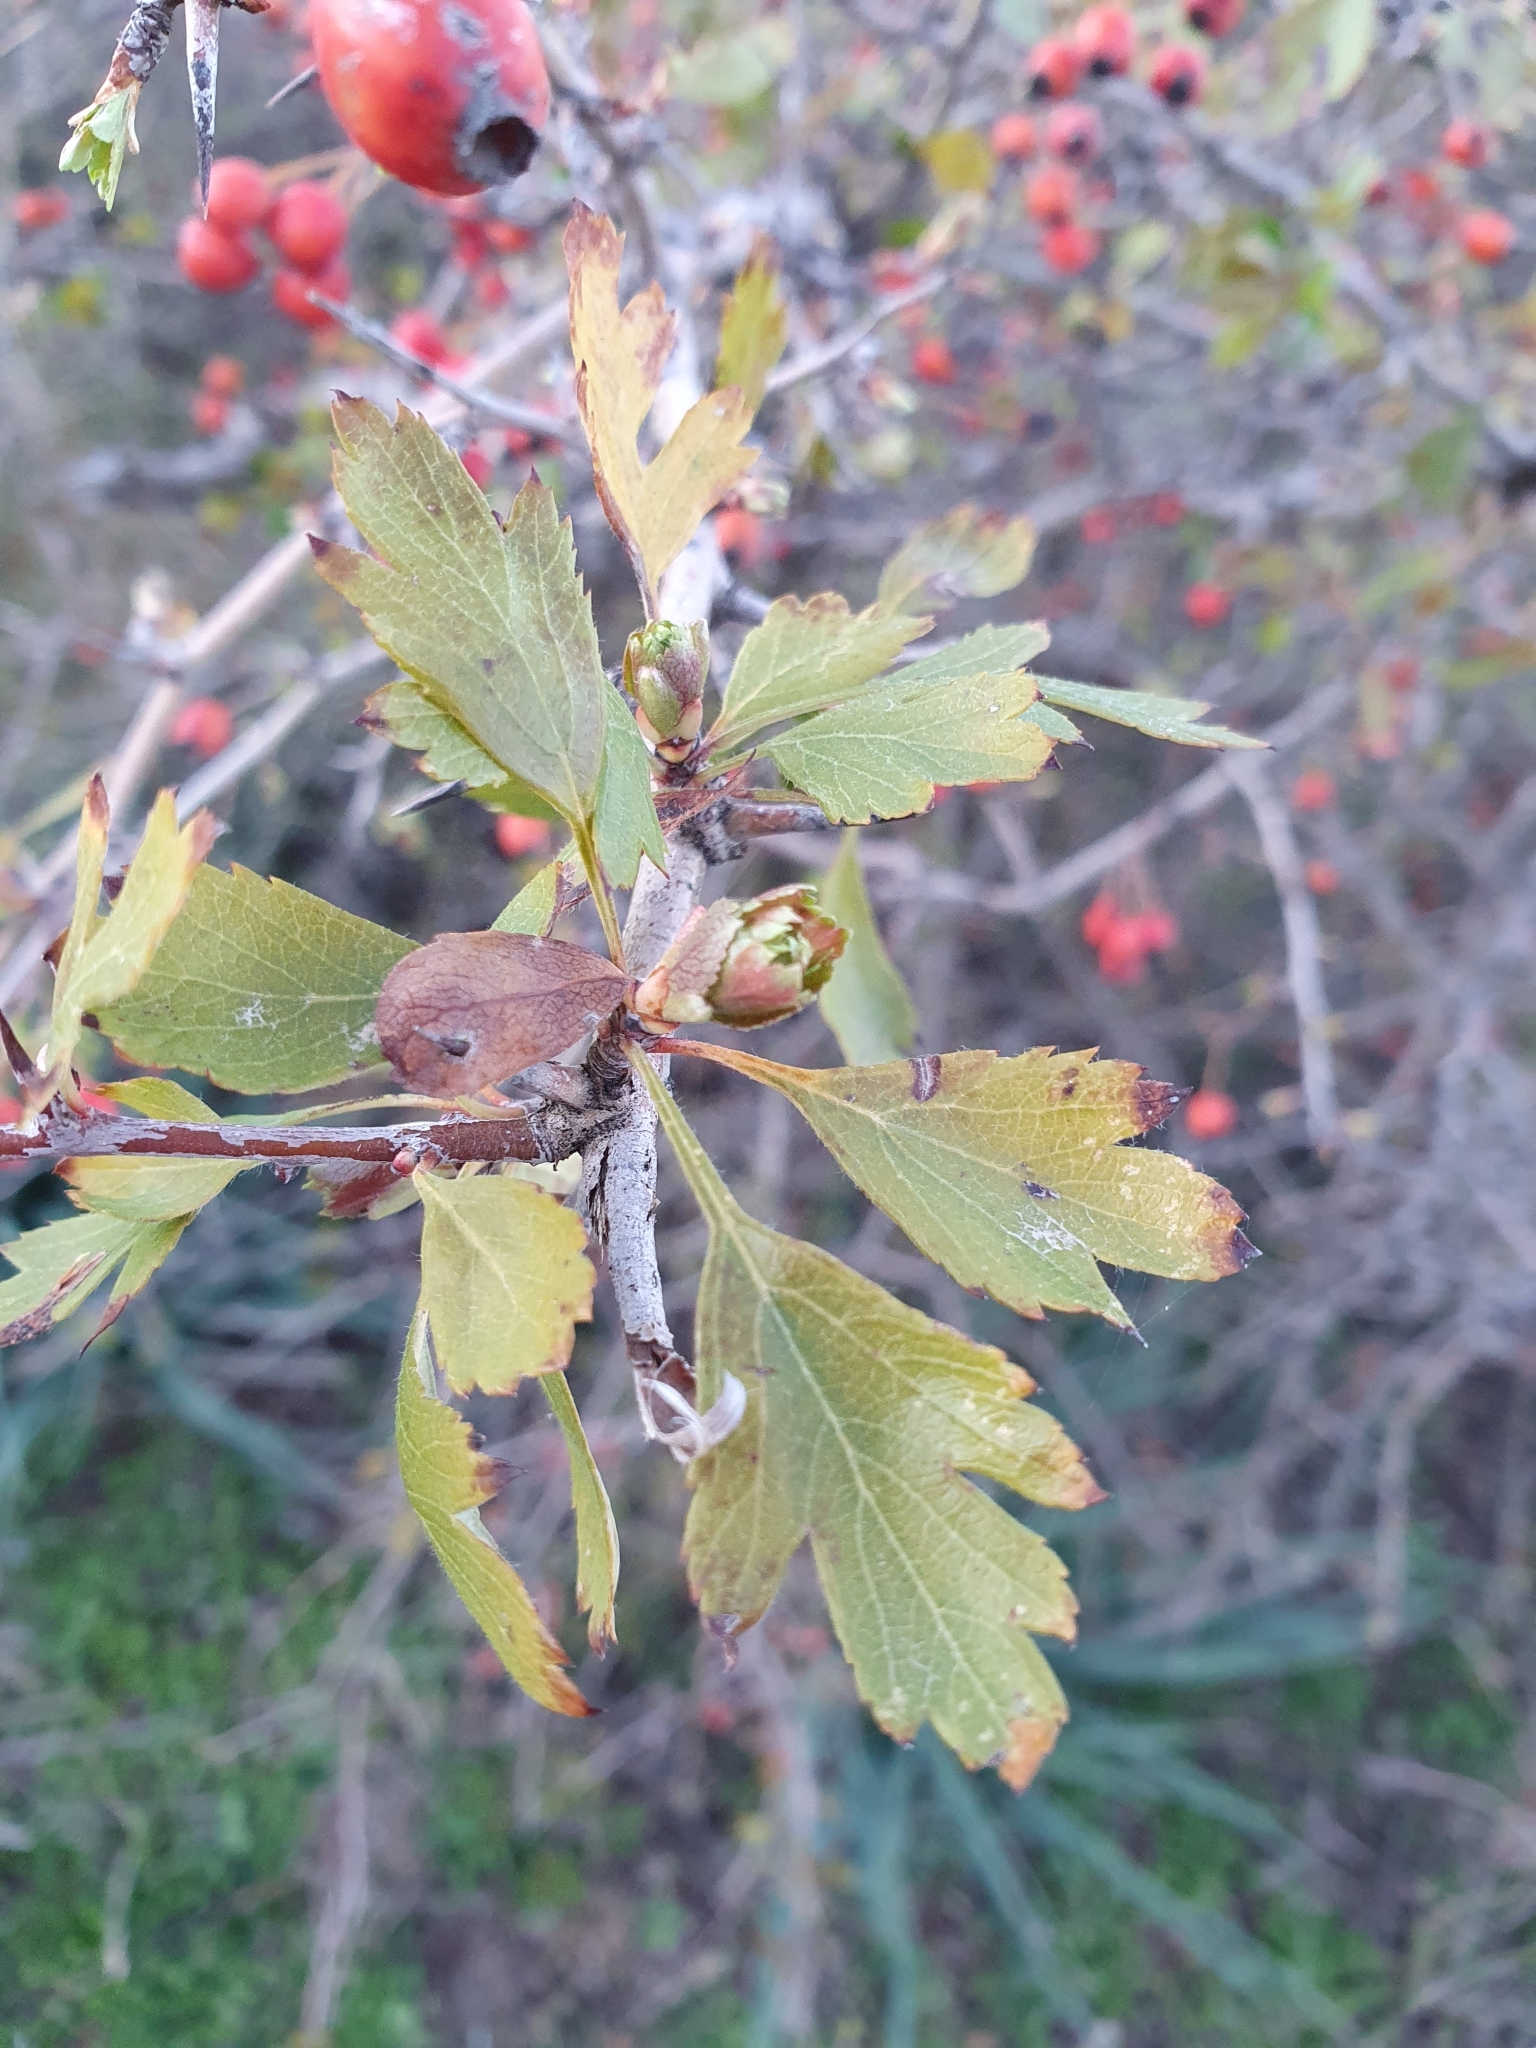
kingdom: Plantae
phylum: Tracheophyta
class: Magnoliopsida
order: Rosales
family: Rosaceae
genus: Crataegus
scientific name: Crataegus monogyna
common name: Hawthorn
